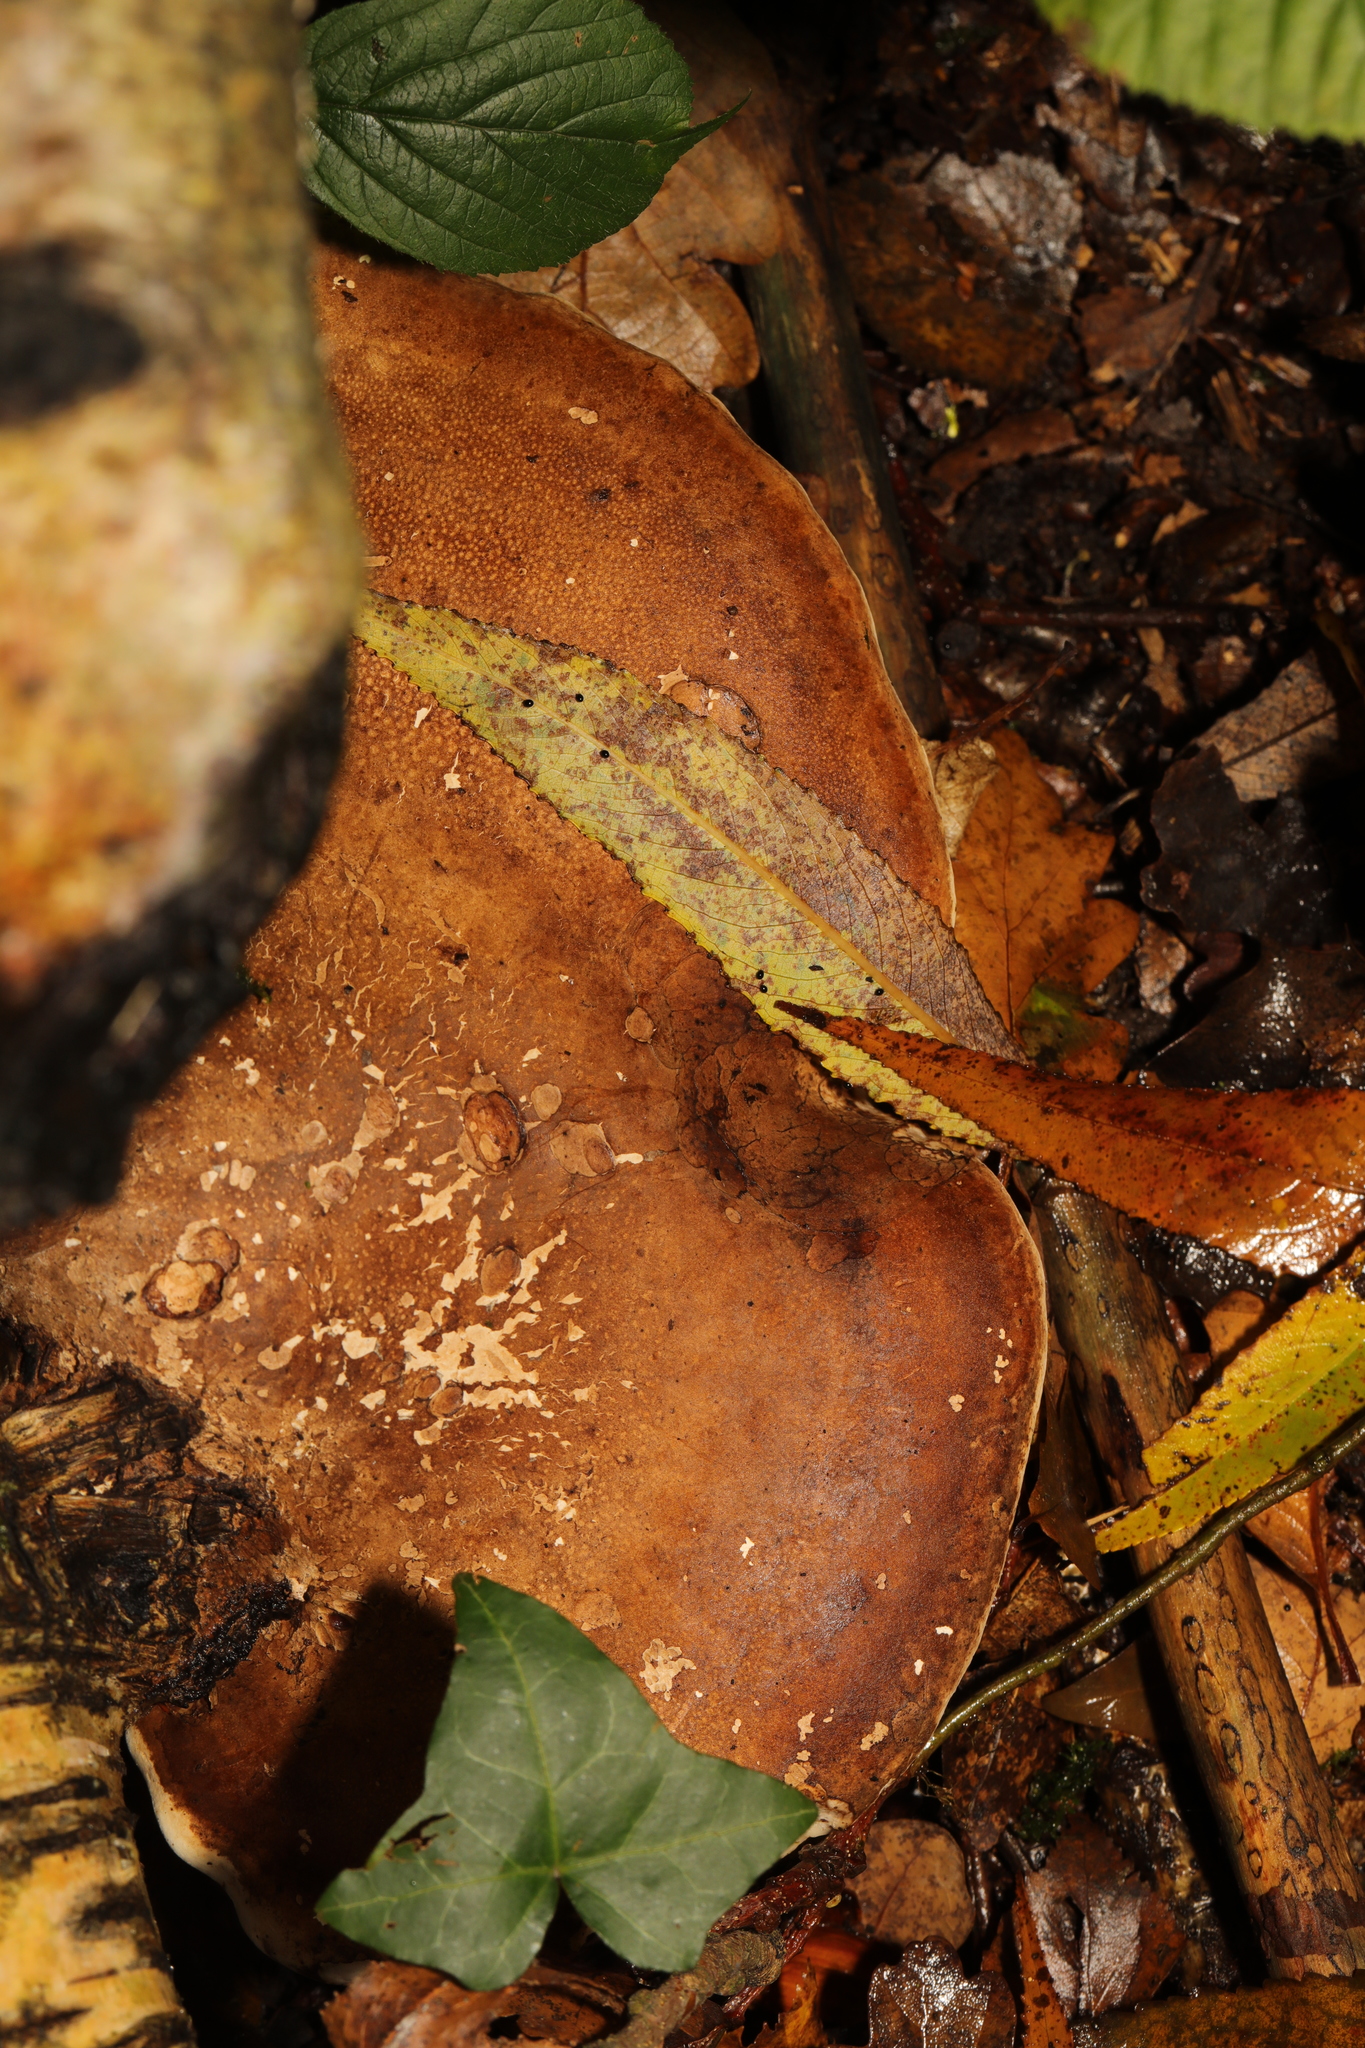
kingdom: Fungi
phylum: Basidiomycota
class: Agaricomycetes
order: Polyporales
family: Fomitopsidaceae
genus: Fomitopsis
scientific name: Fomitopsis betulina
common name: Birch polypore
